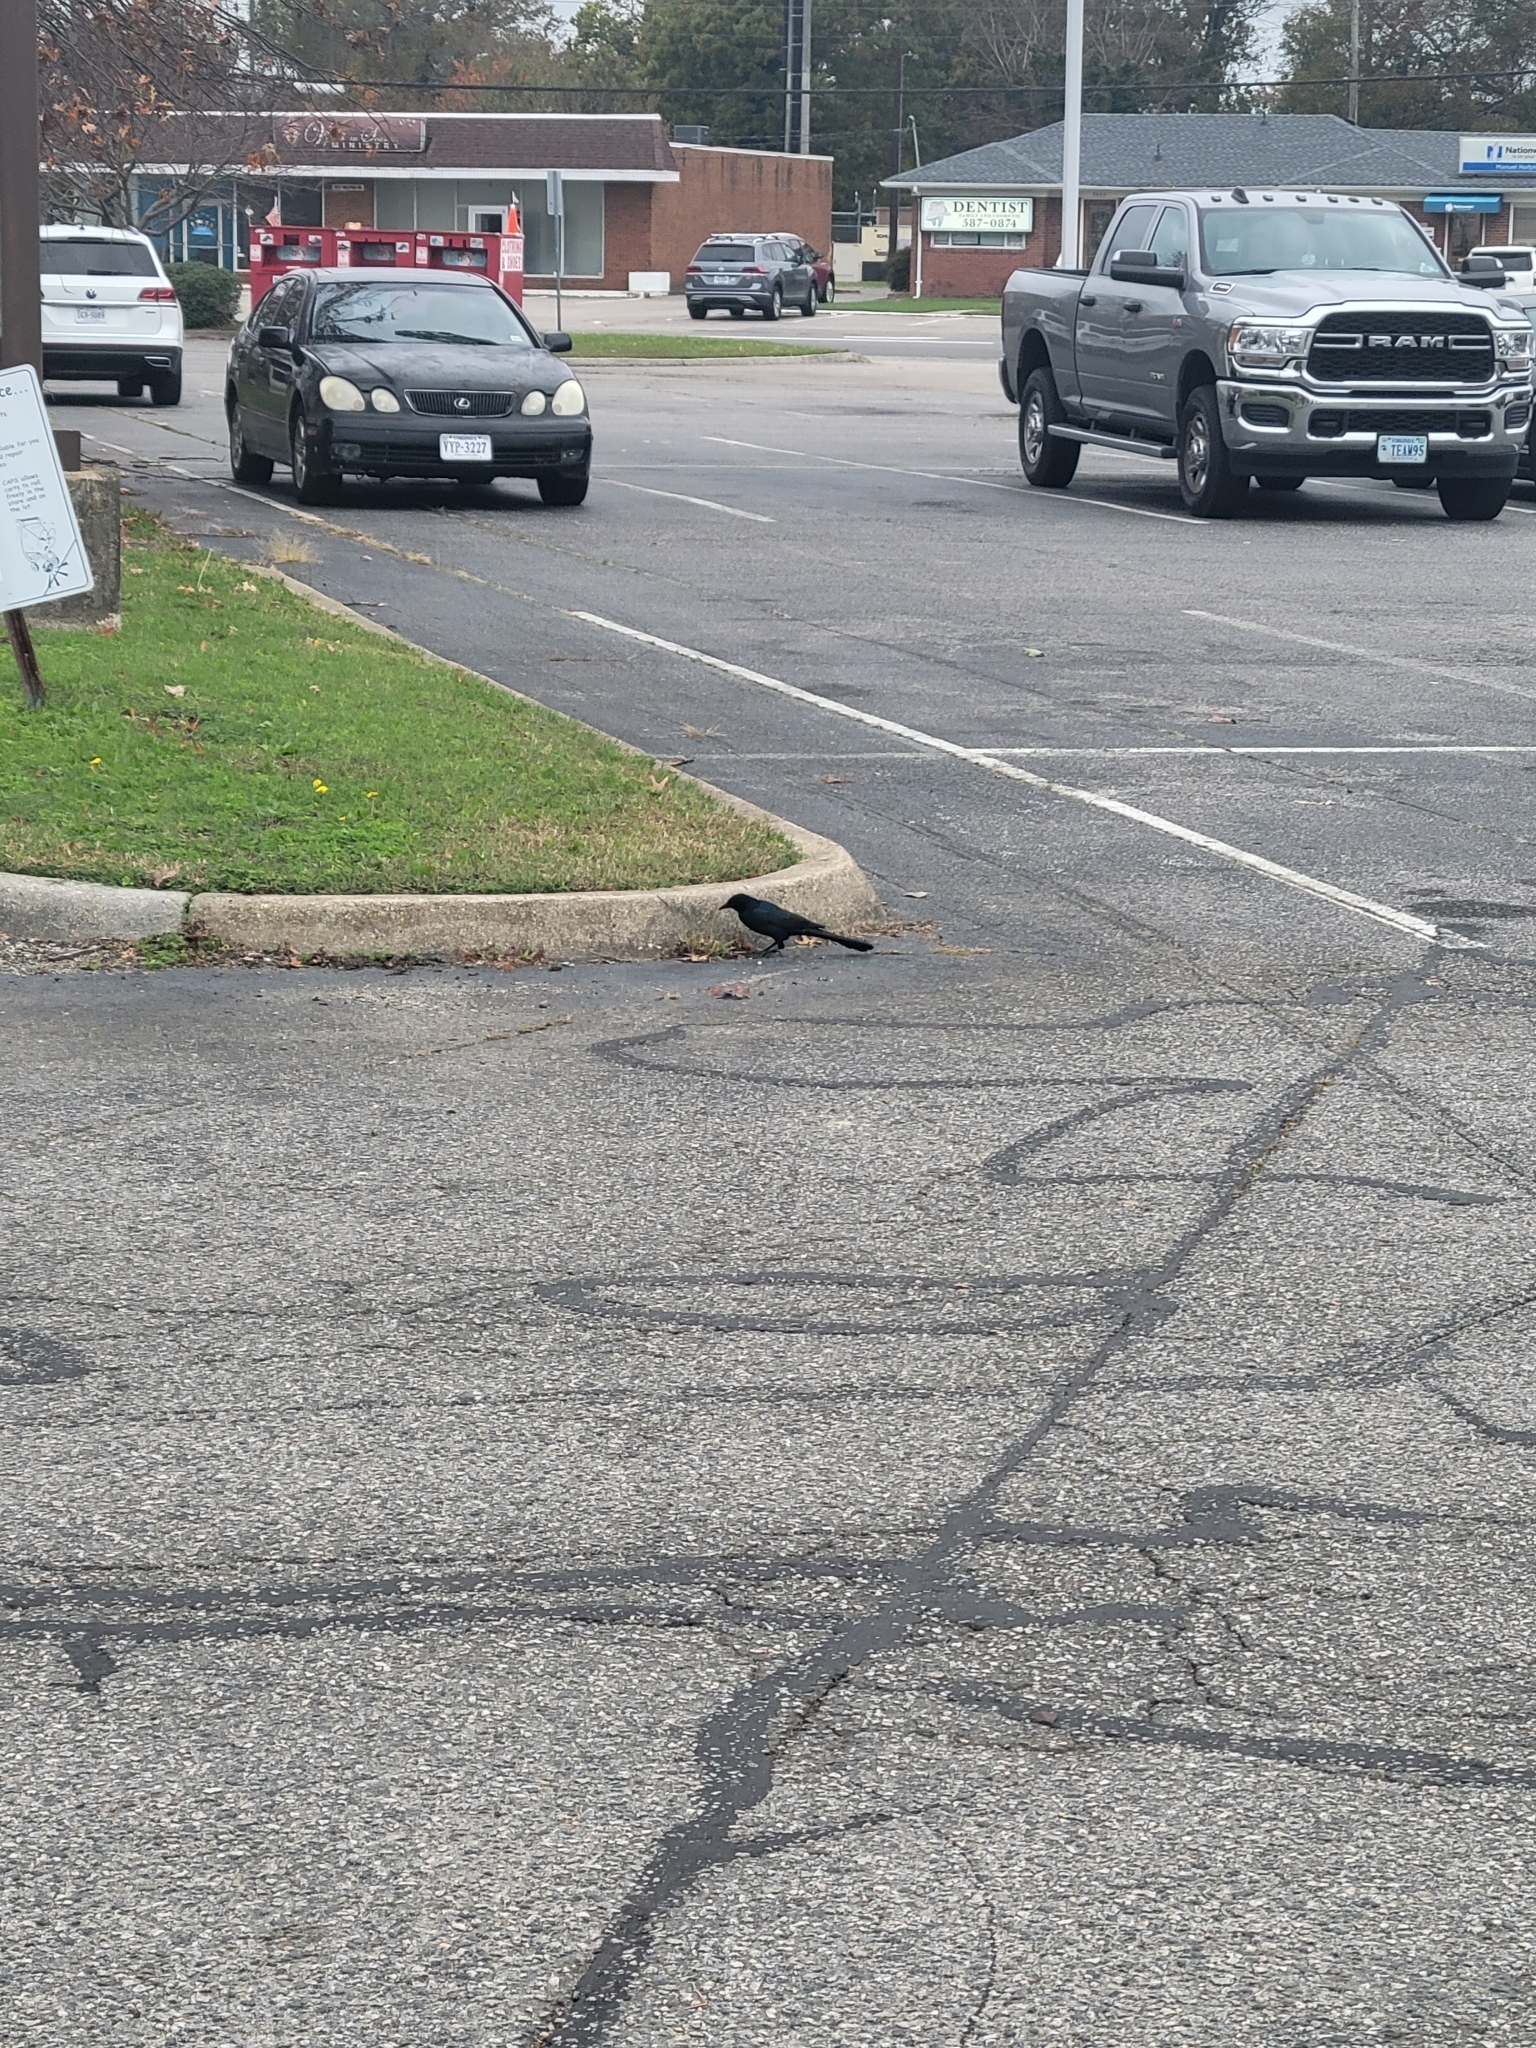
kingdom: Animalia
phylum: Chordata
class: Aves
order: Passeriformes
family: Icteridae
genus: Quiscalus
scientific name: Quiscalus major
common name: Boat-tailed grackle
